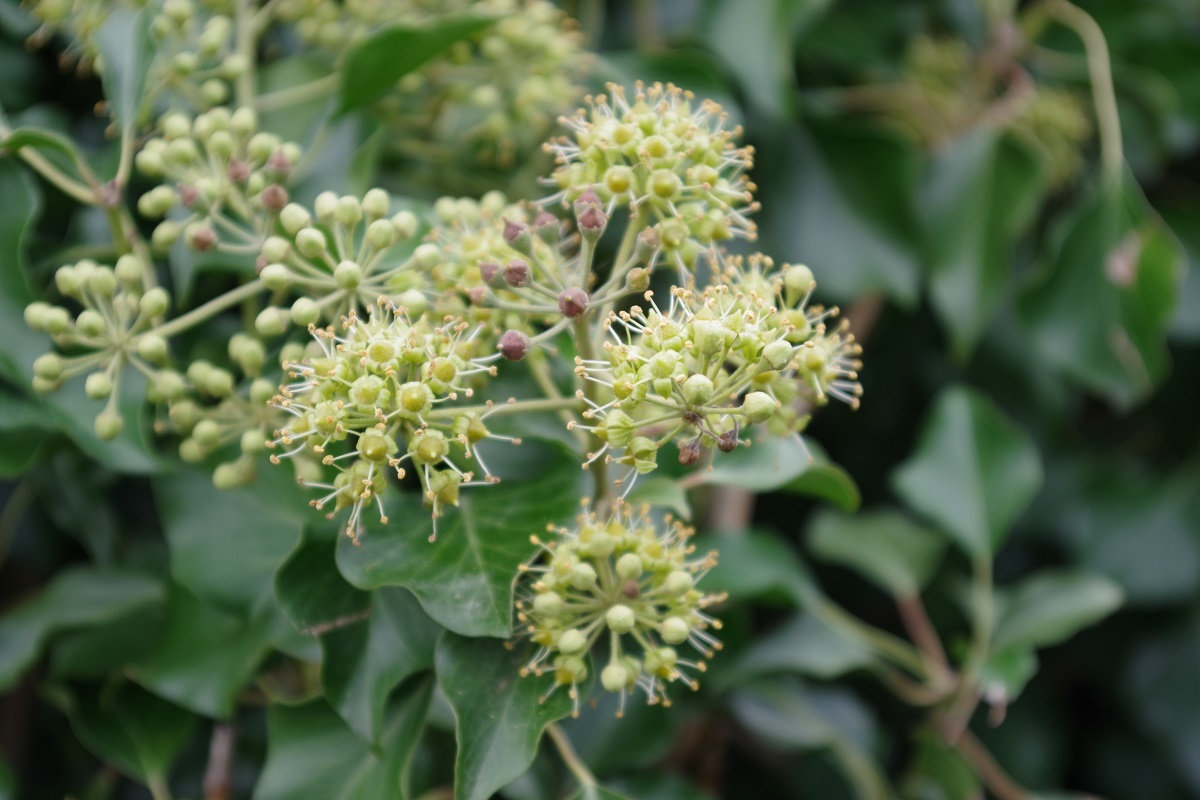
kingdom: Plantae
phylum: Tracheophyta
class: Magnoliopsida
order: Apiales
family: Araliaceae
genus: Hedera
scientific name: Hedera helix
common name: Ivy
